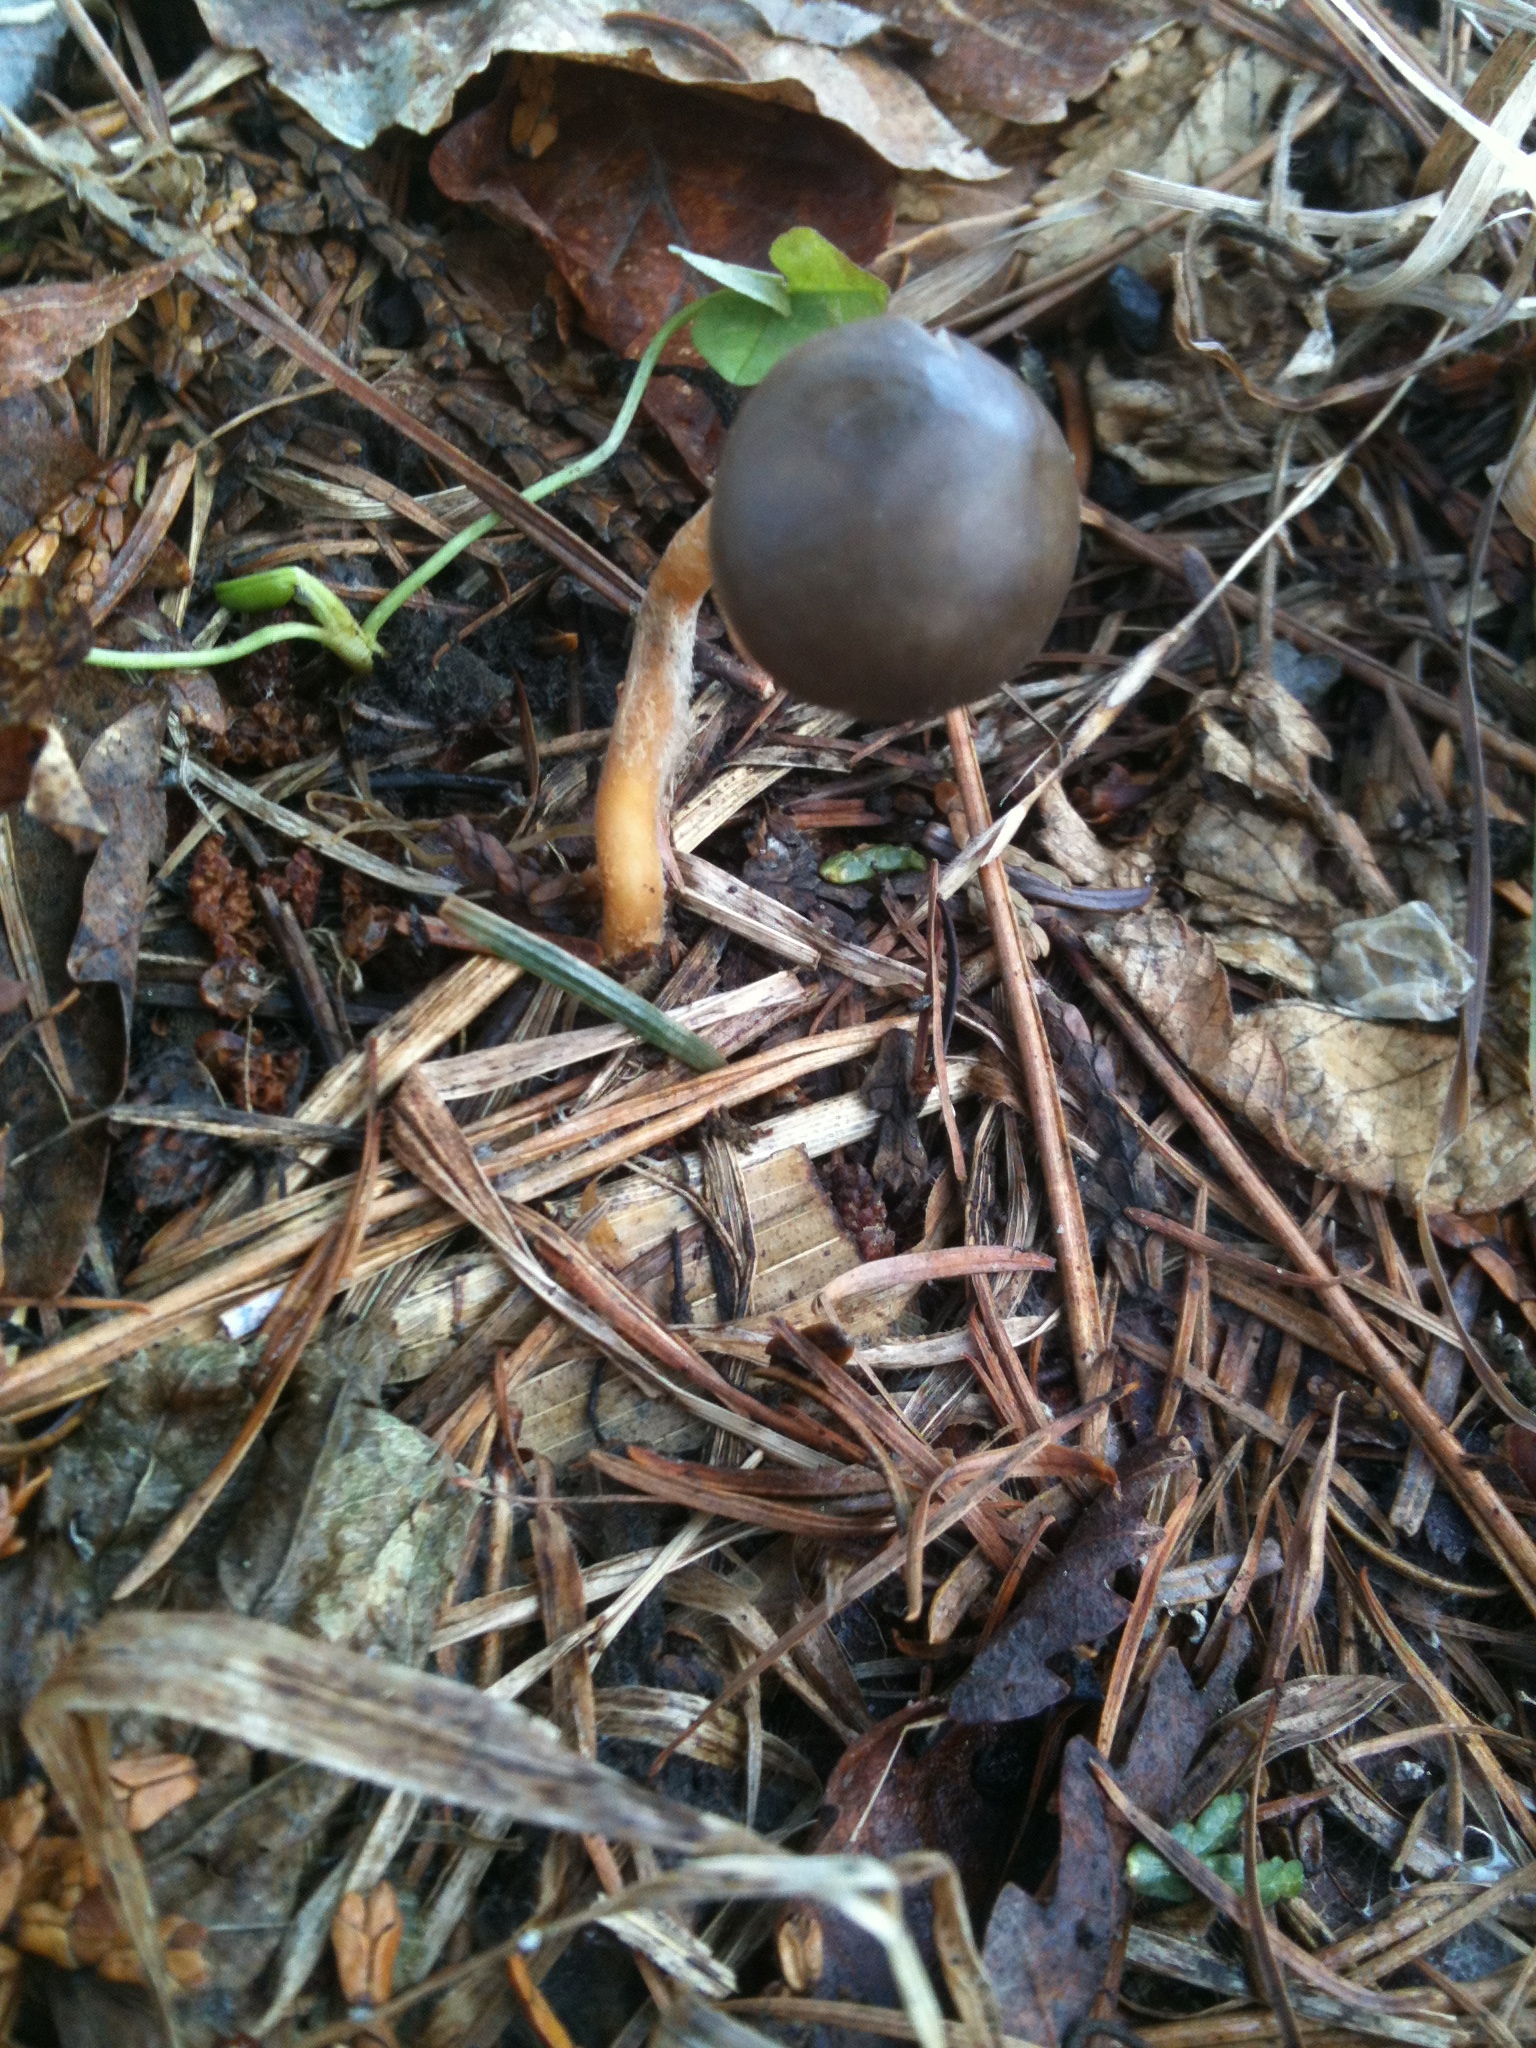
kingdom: Fungi
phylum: Basidiomycota
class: Agaricomycetes
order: Agaricales
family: Physalacriaceae
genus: Strobilurus
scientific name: Strobilurus stephanocystis
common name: Russian conecap
